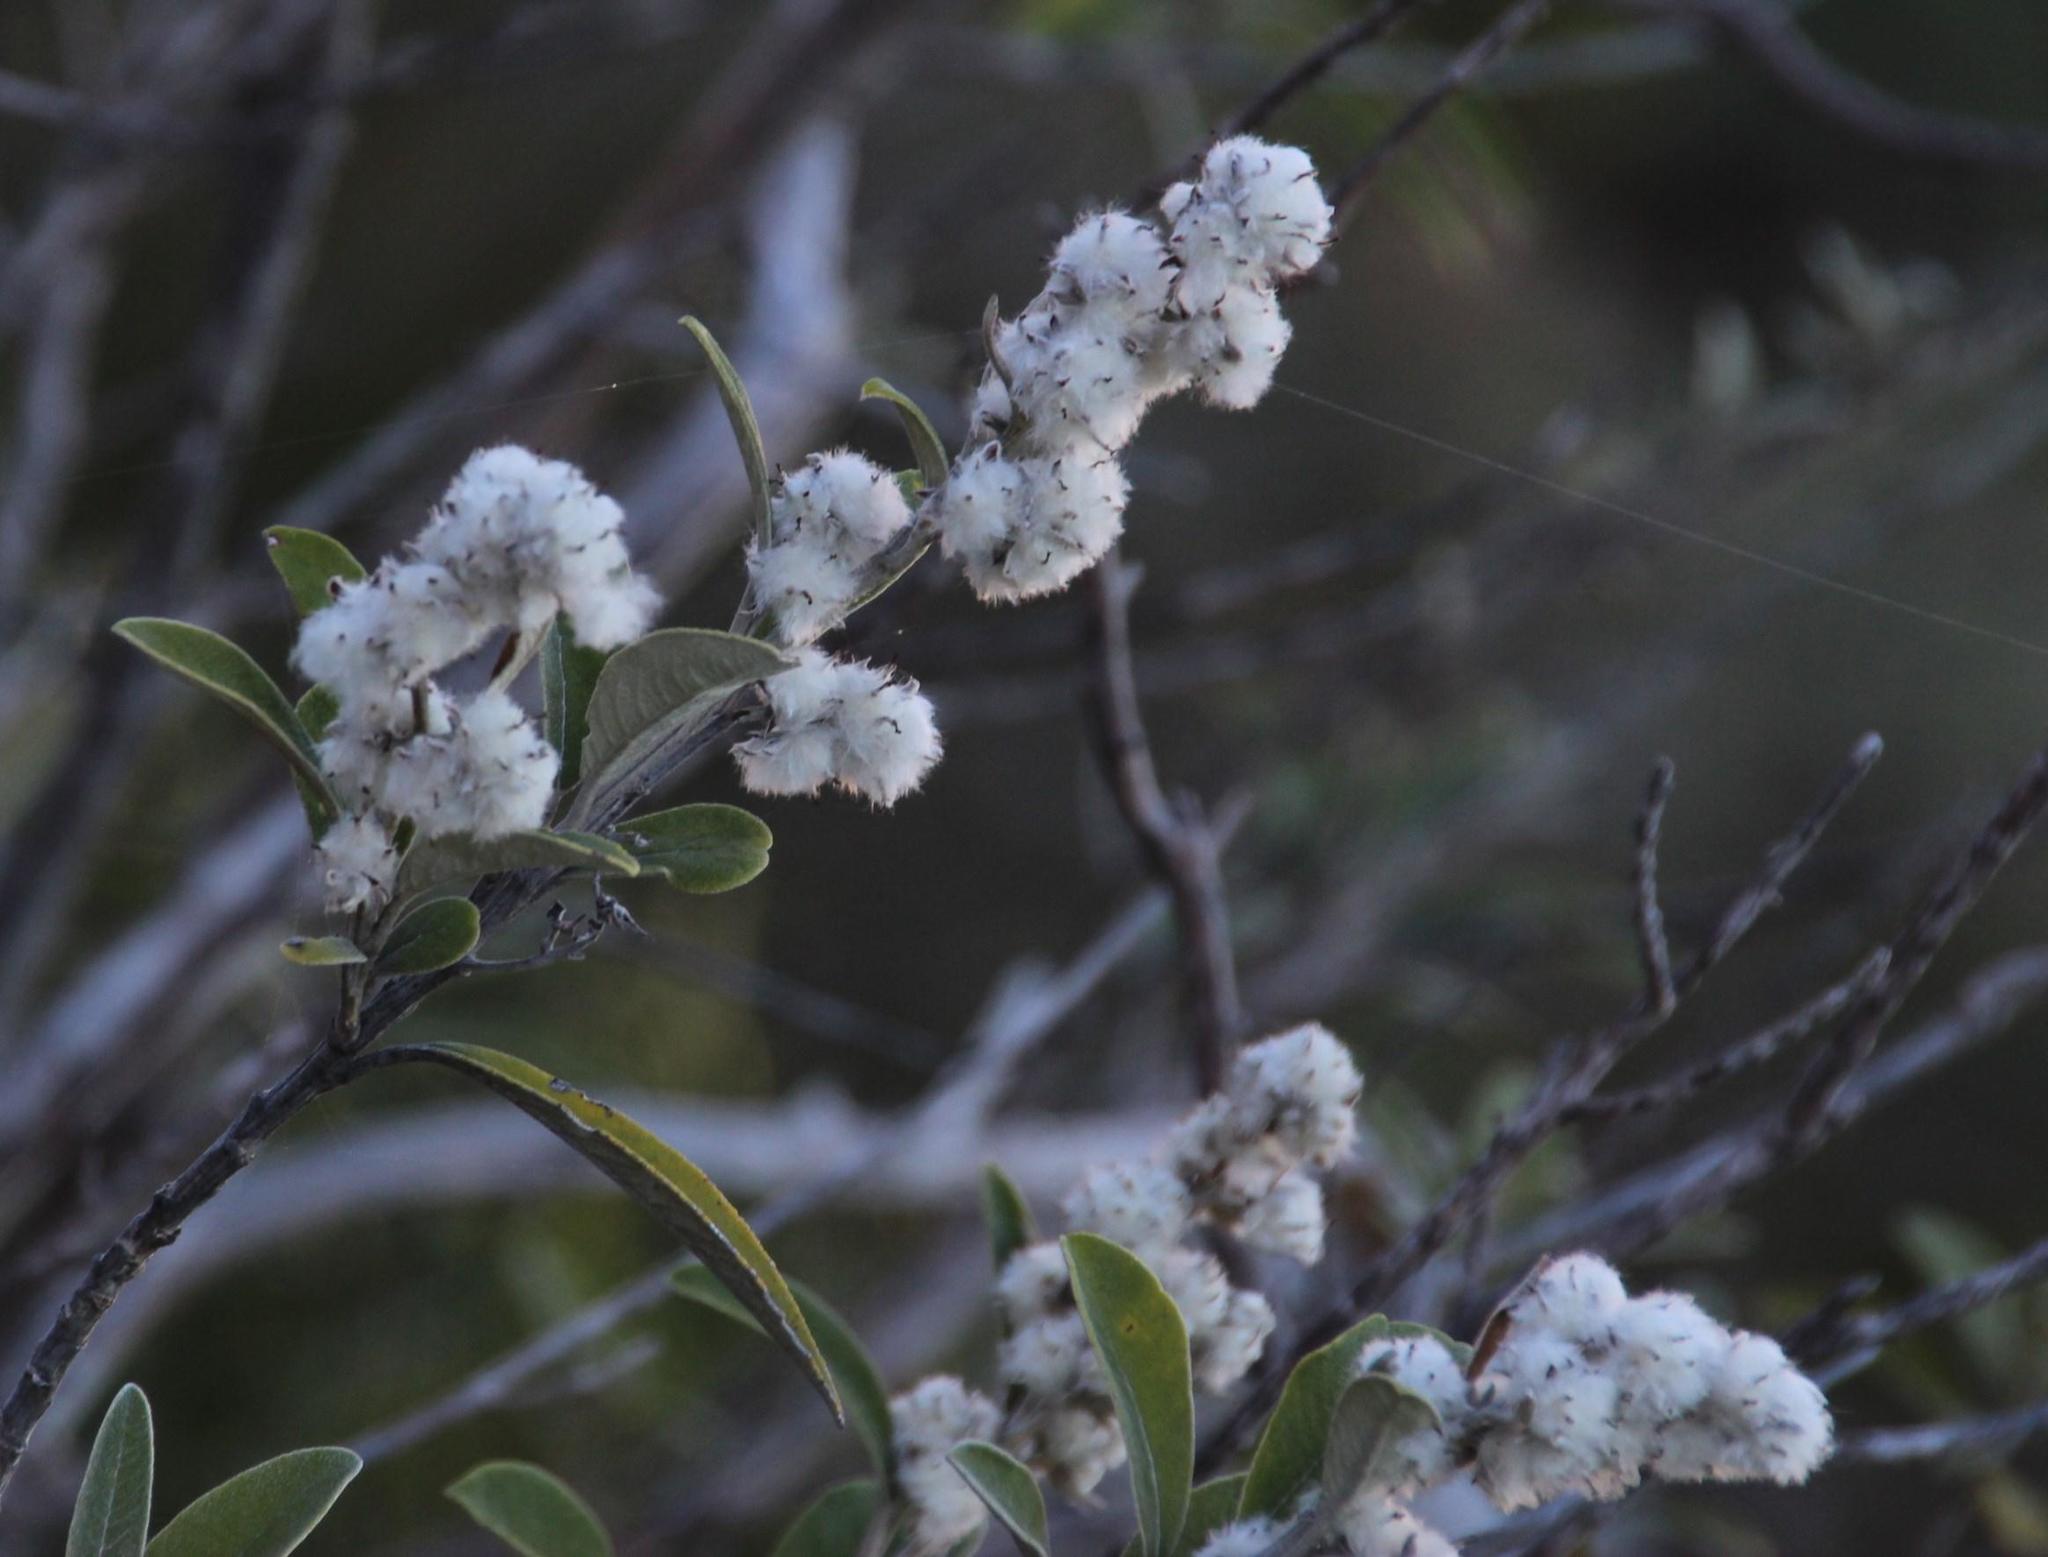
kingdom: Plantae
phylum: Tracheophyta
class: Magnoliopsida
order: Asterales
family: Asteraceae
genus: Tarchonanthus
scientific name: Tarchonanthus littoralis
